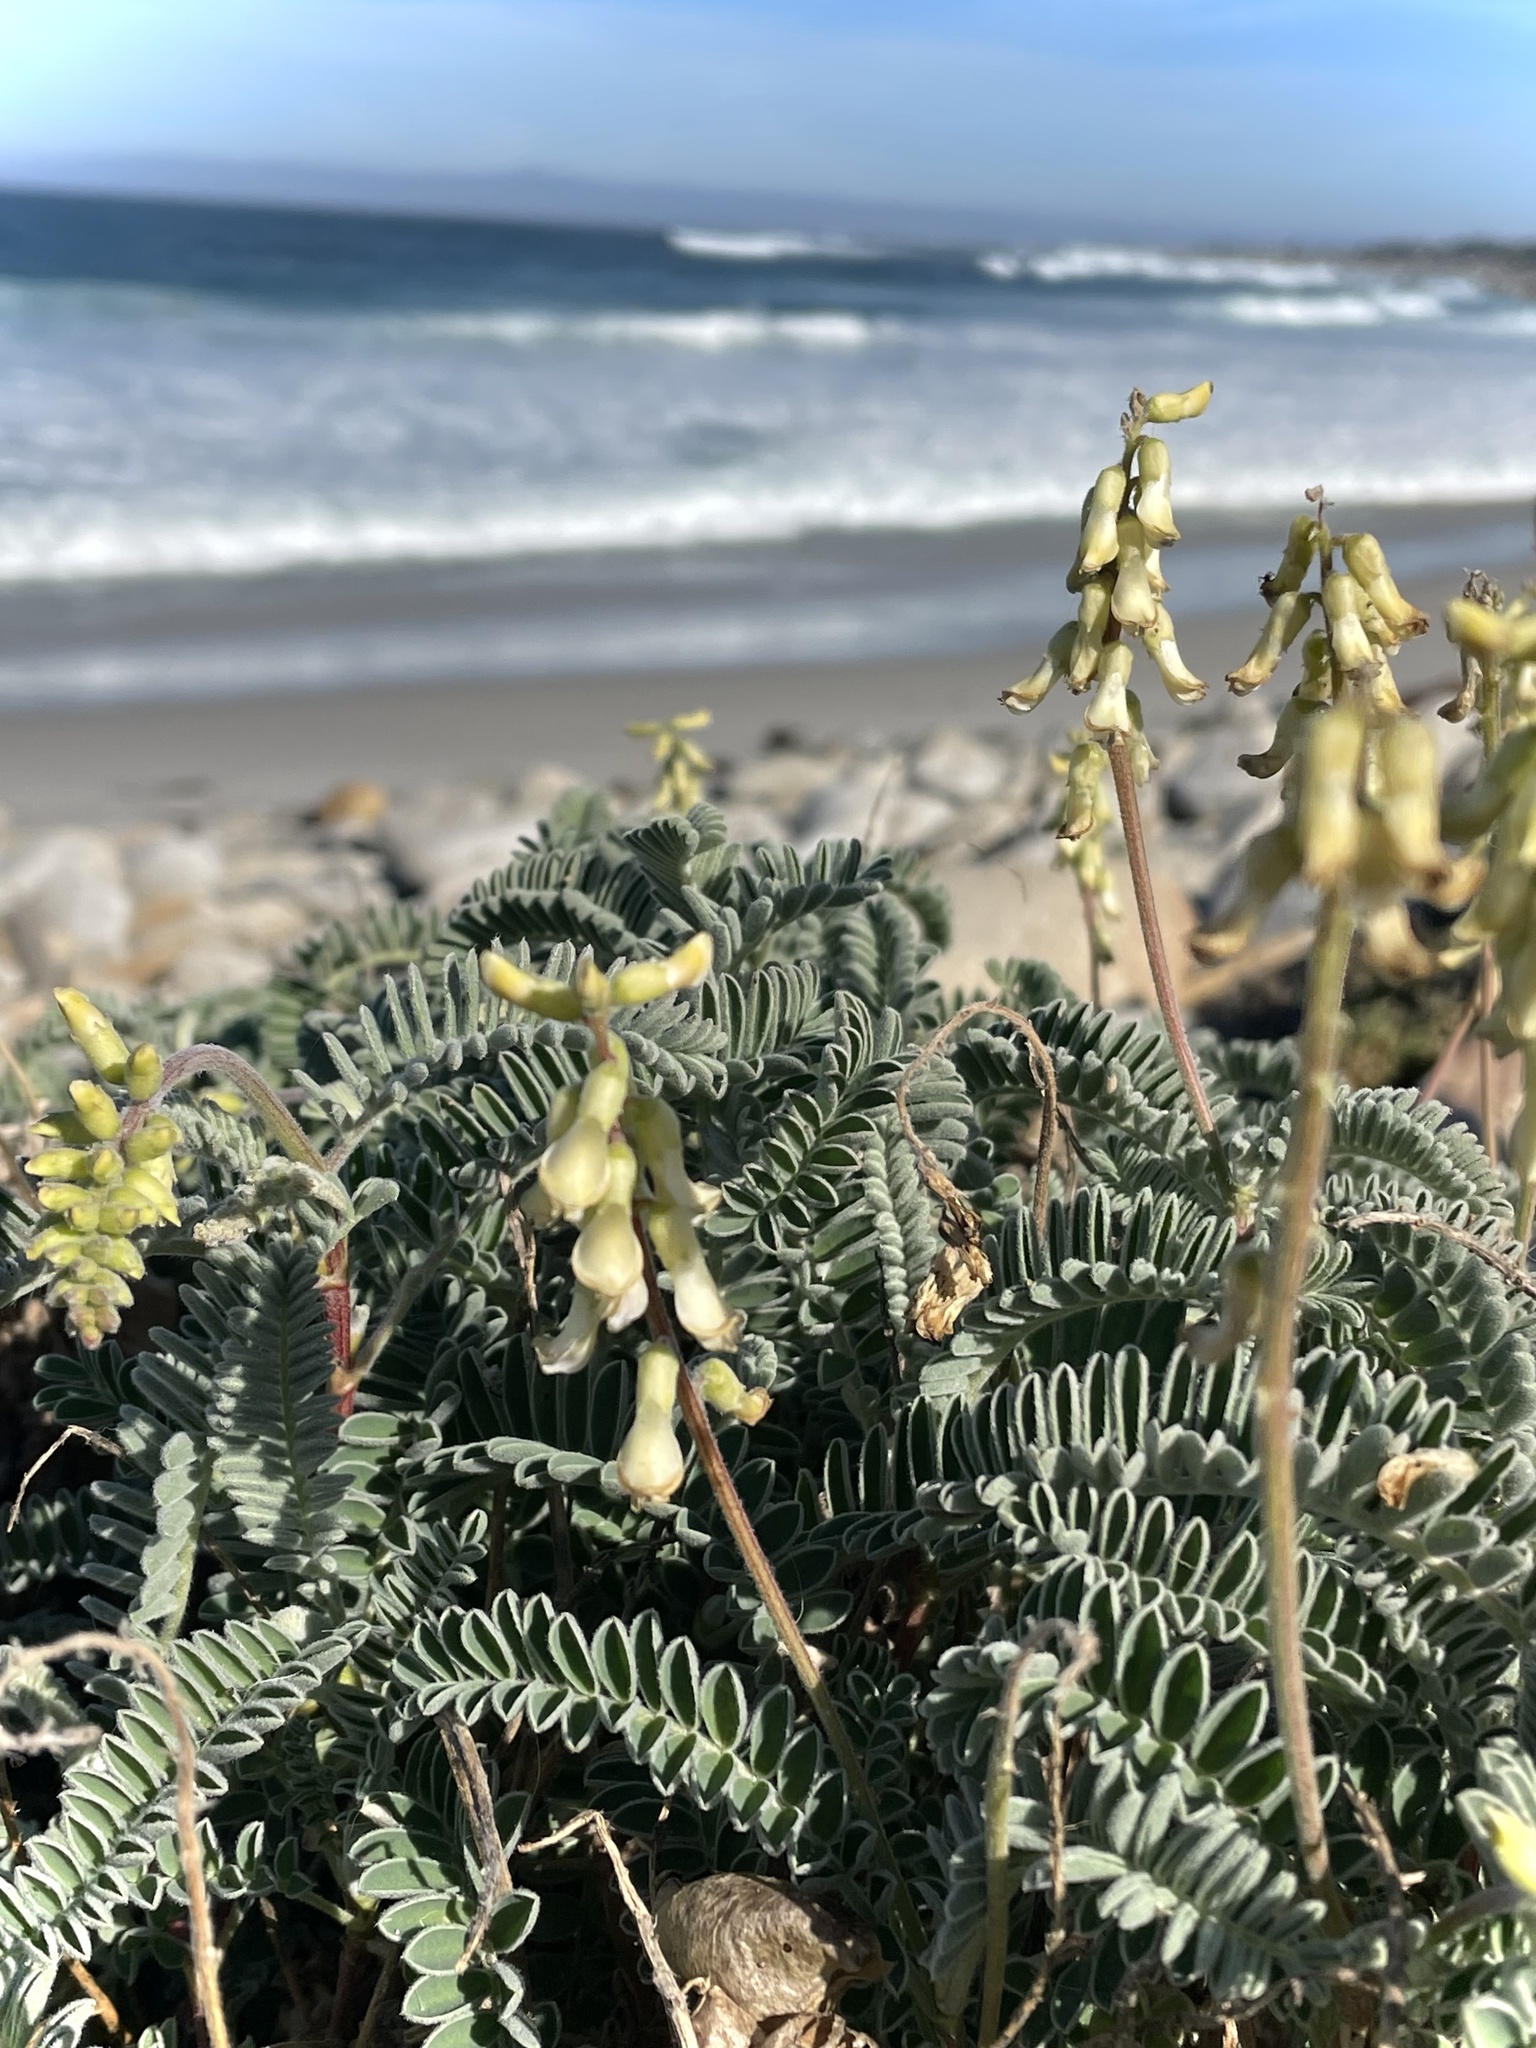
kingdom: Plantae
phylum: Tracheophyta
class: Magnoliopsida
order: Fabales
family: Fabaceae
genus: Astragalus
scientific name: Astragalus nuttallii
